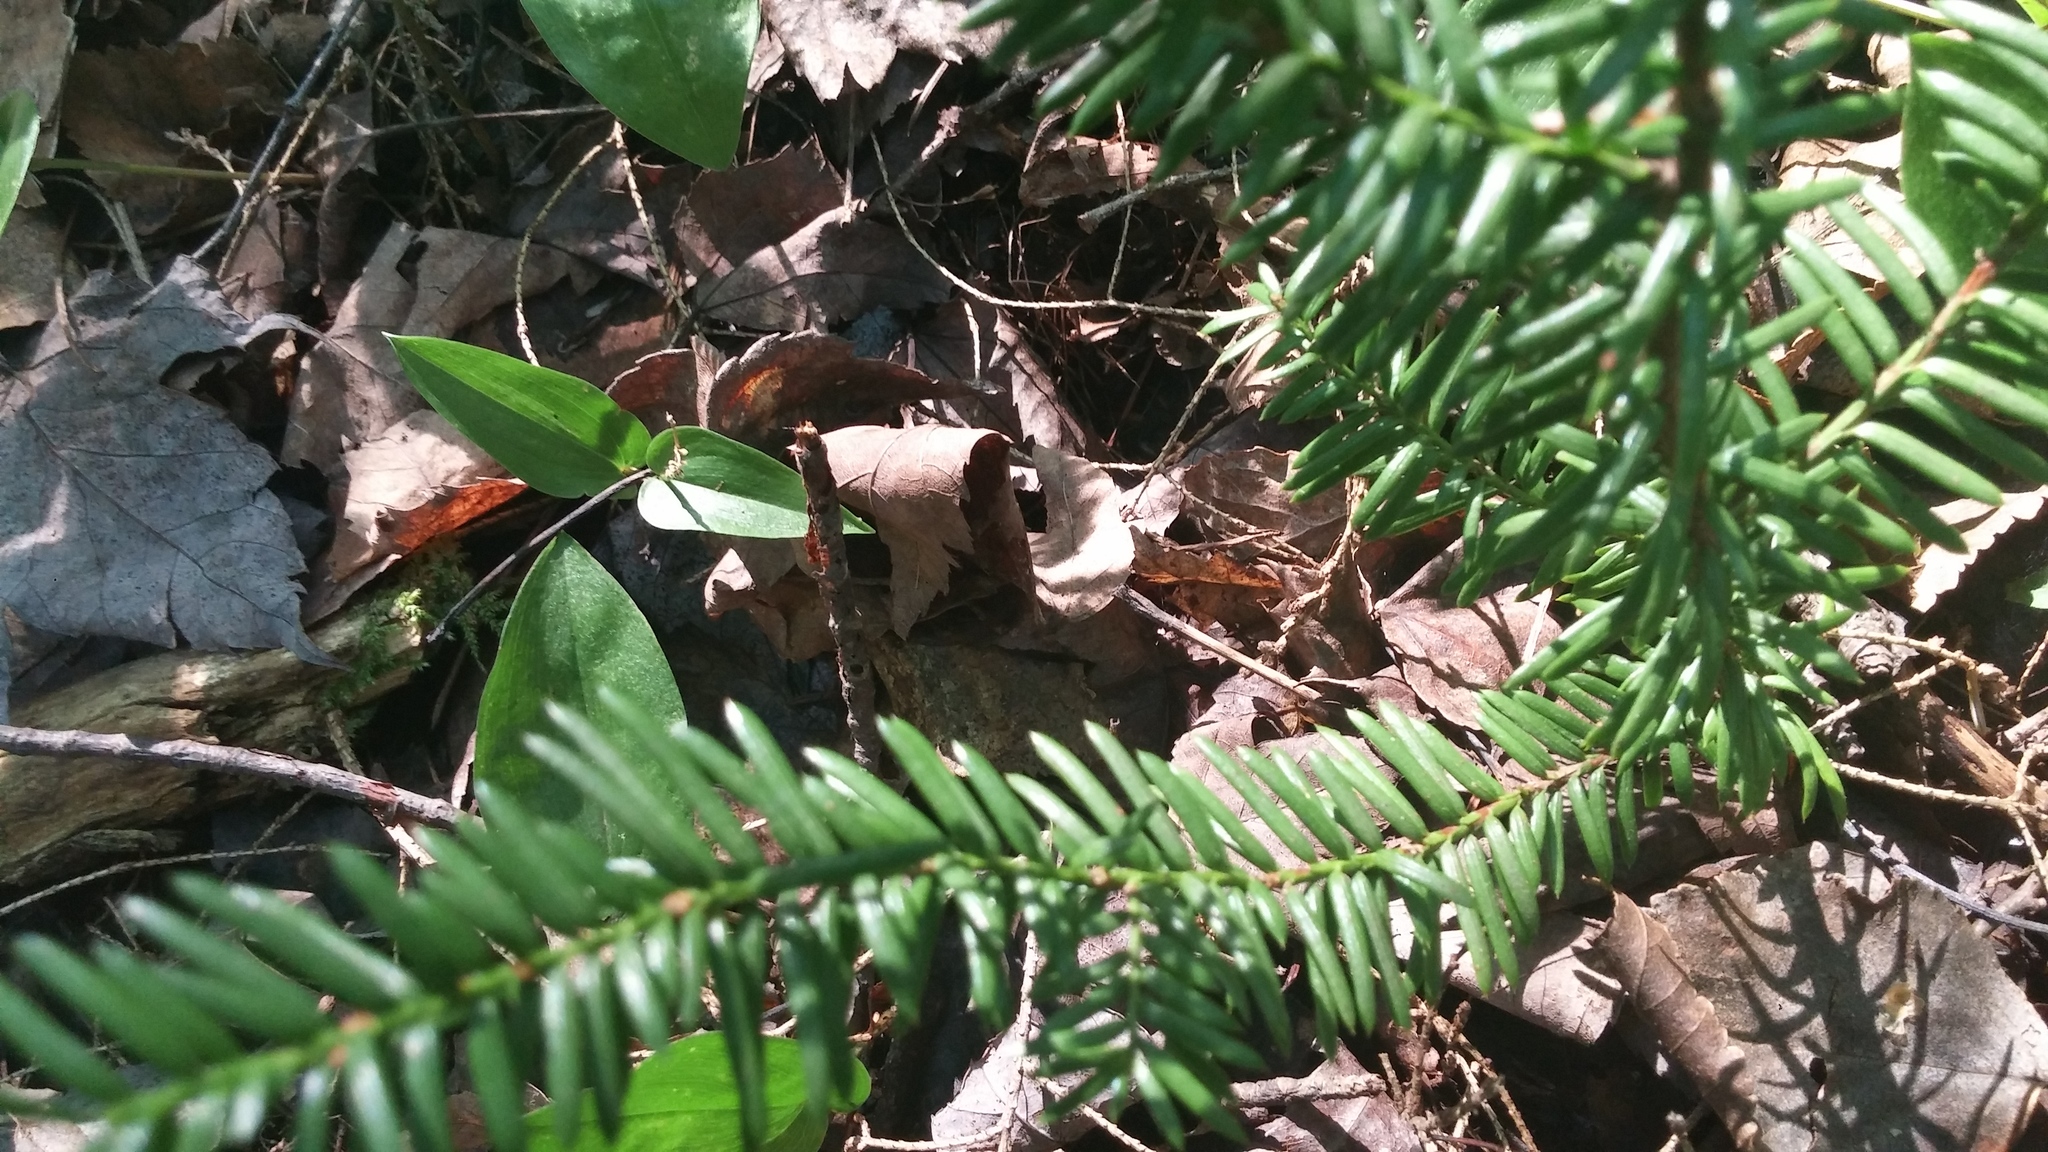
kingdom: Plantae
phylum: Tracheophyta
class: Pinopsida
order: Pinales
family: Taxaceae
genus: Taxus
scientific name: Taxus canadensis
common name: American yew
